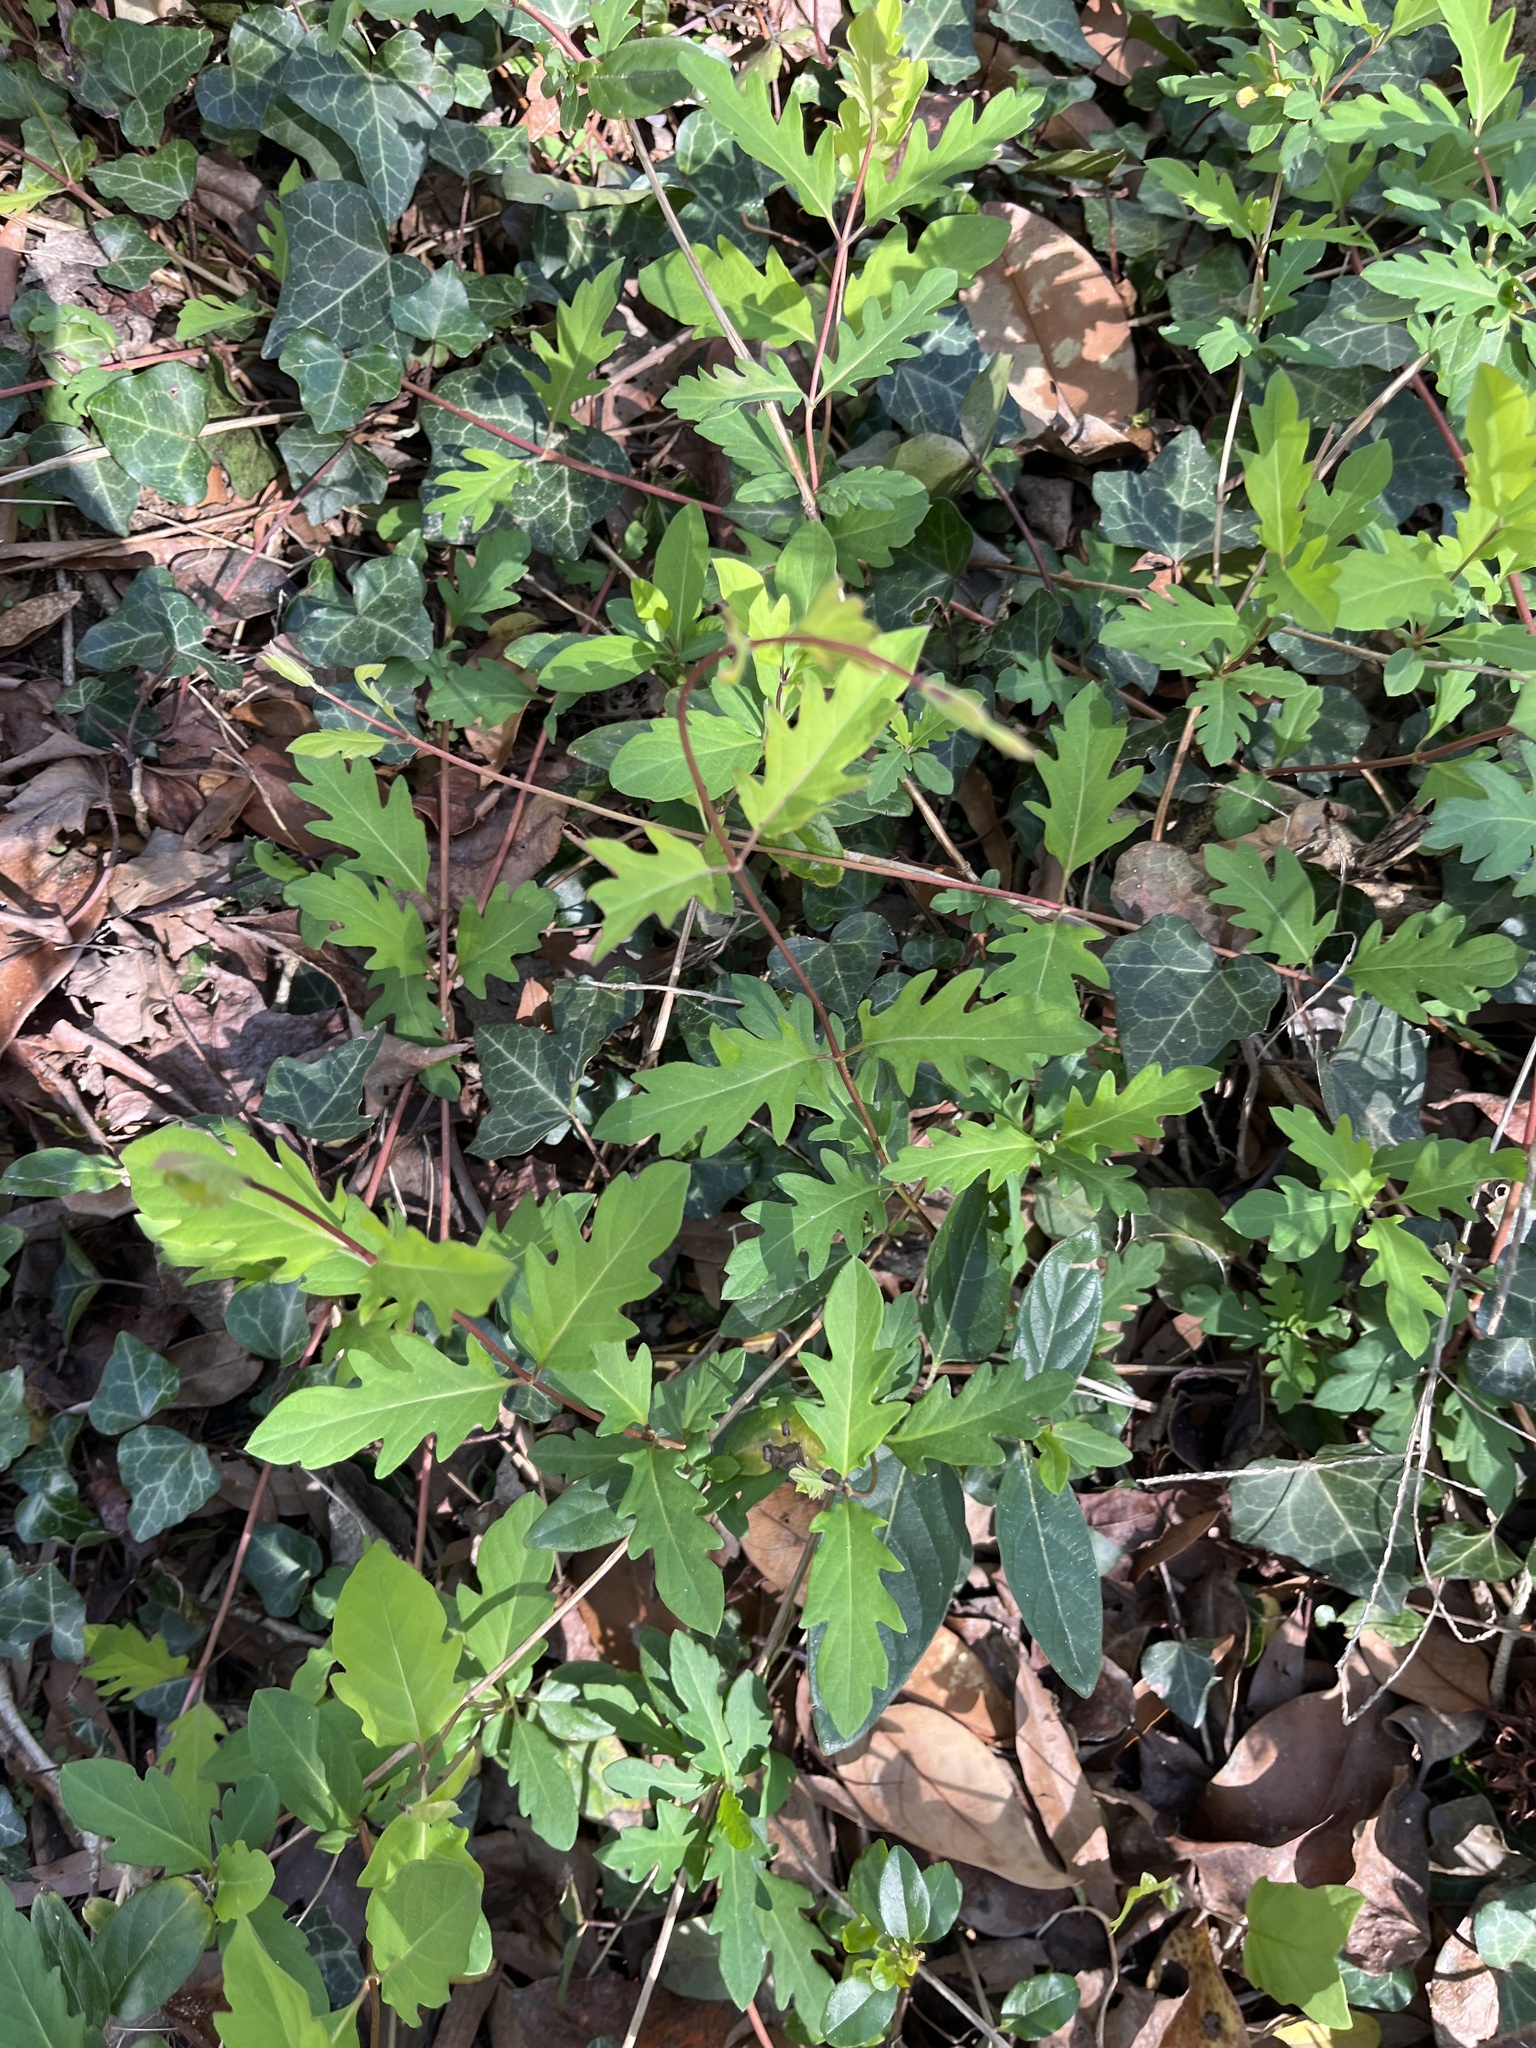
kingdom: Plantae
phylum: Tracheophyta
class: Magnoliopsida
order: Dipsacales
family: Caprifoliaceae
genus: Lonicera
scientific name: Lonicera japonica
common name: Japanese honeysuckle
